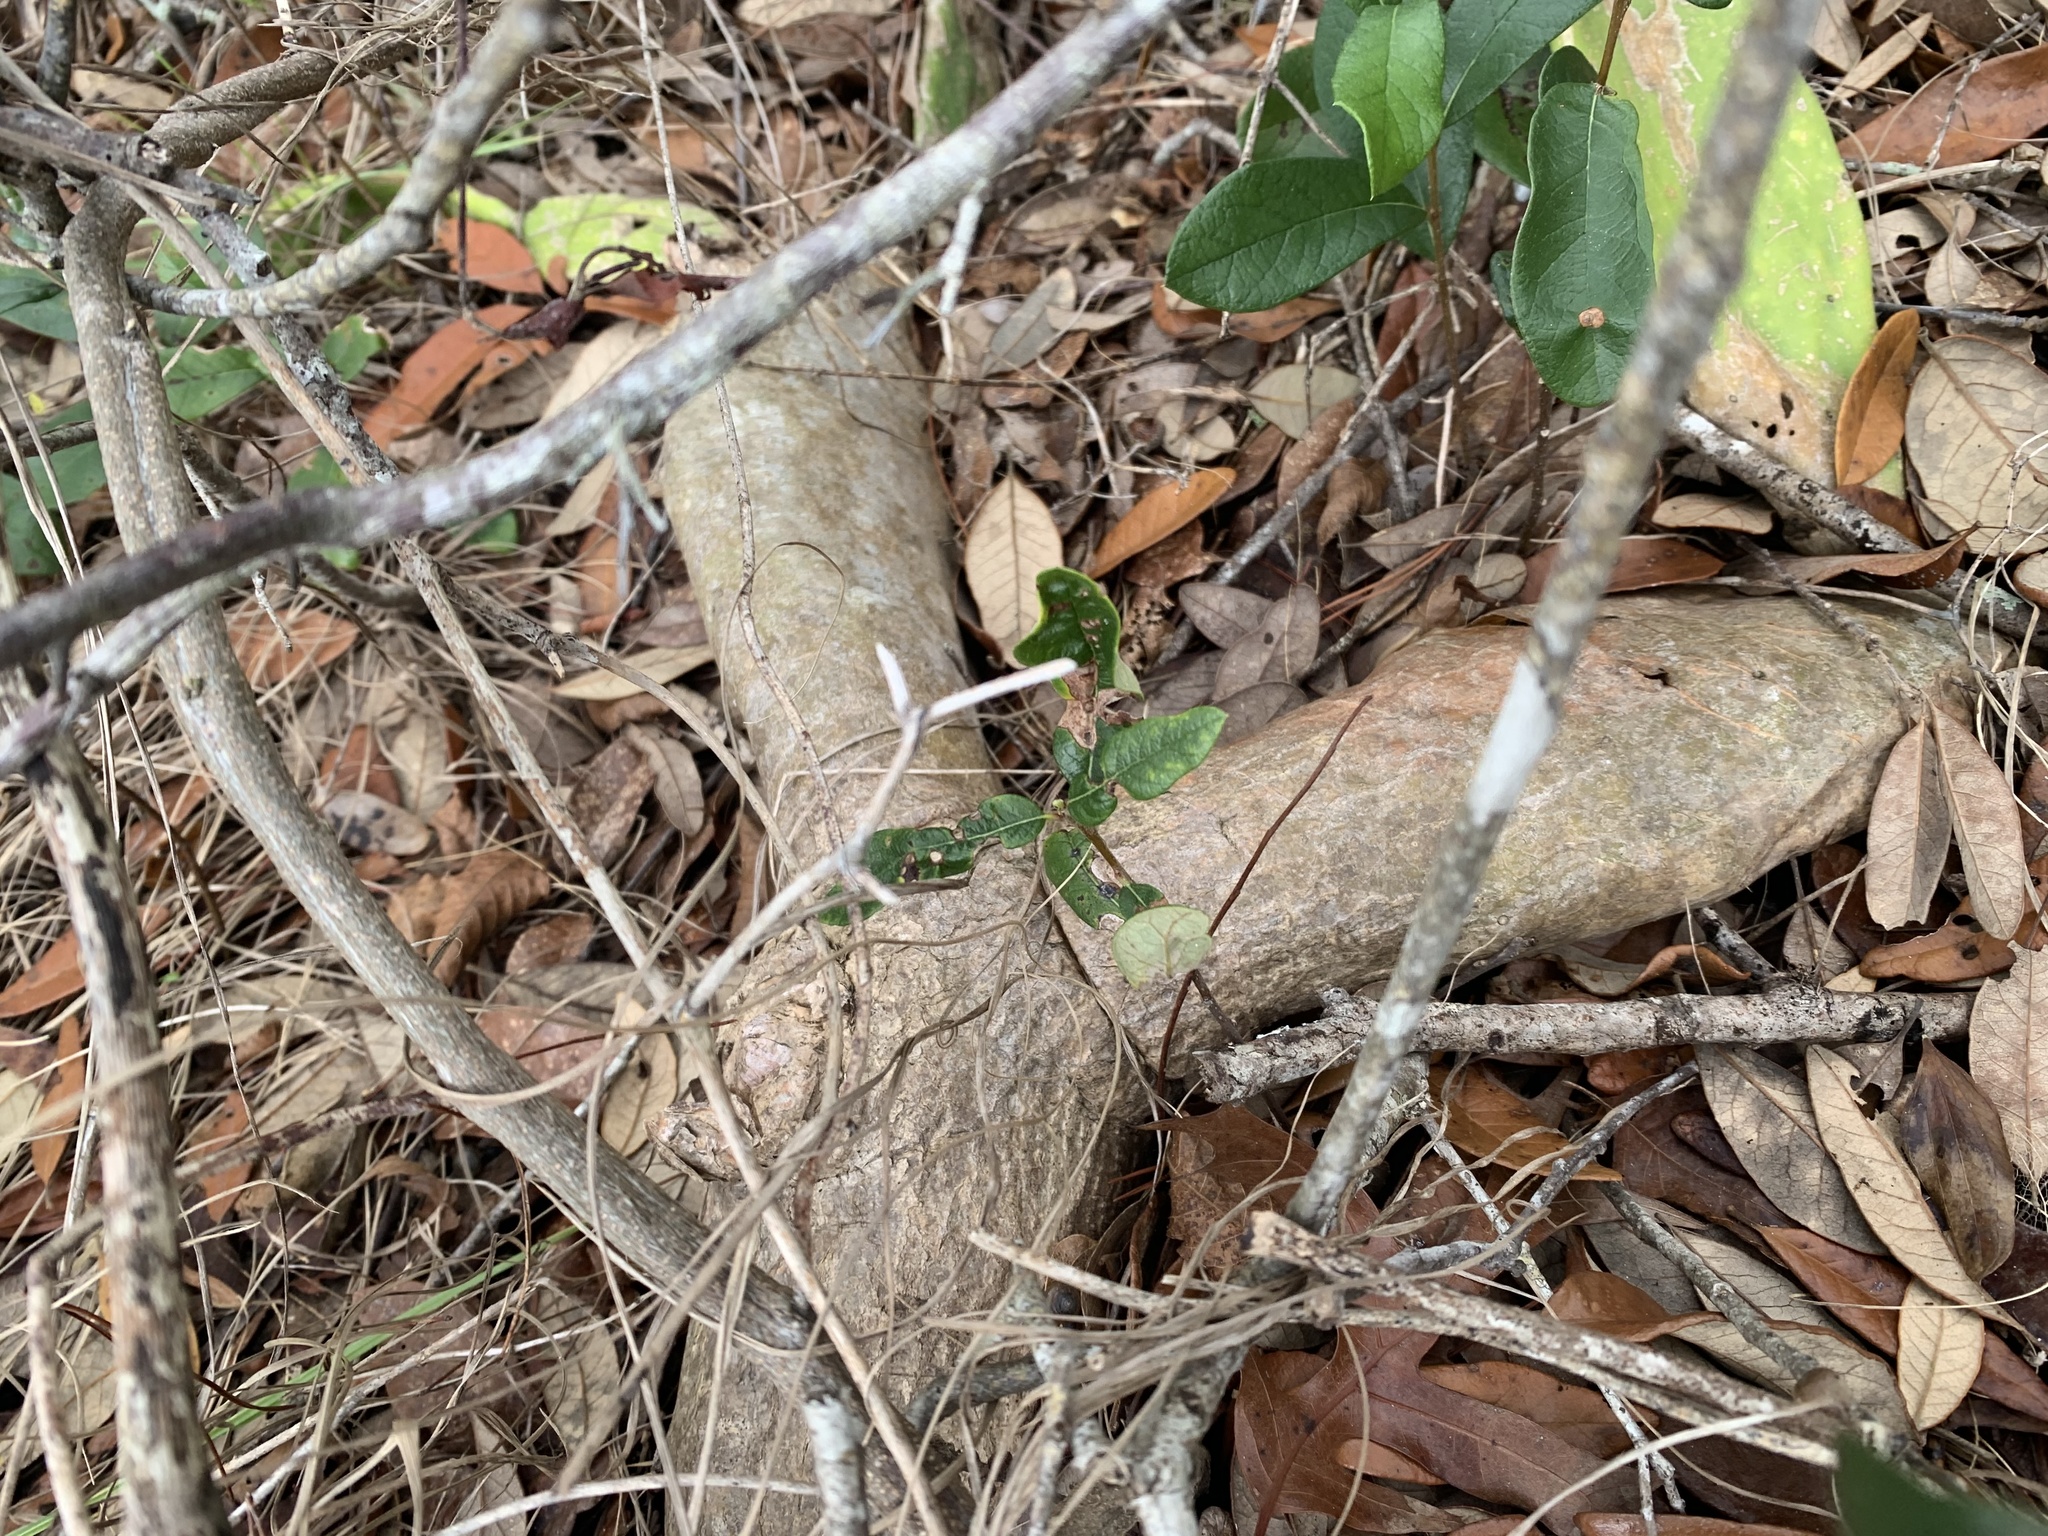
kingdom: Plantae
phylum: Tracheophyta
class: Magnoliopsida
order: Caryophyllales
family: Cactaceae
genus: Opuntia
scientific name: Opuntia cochenillifera
